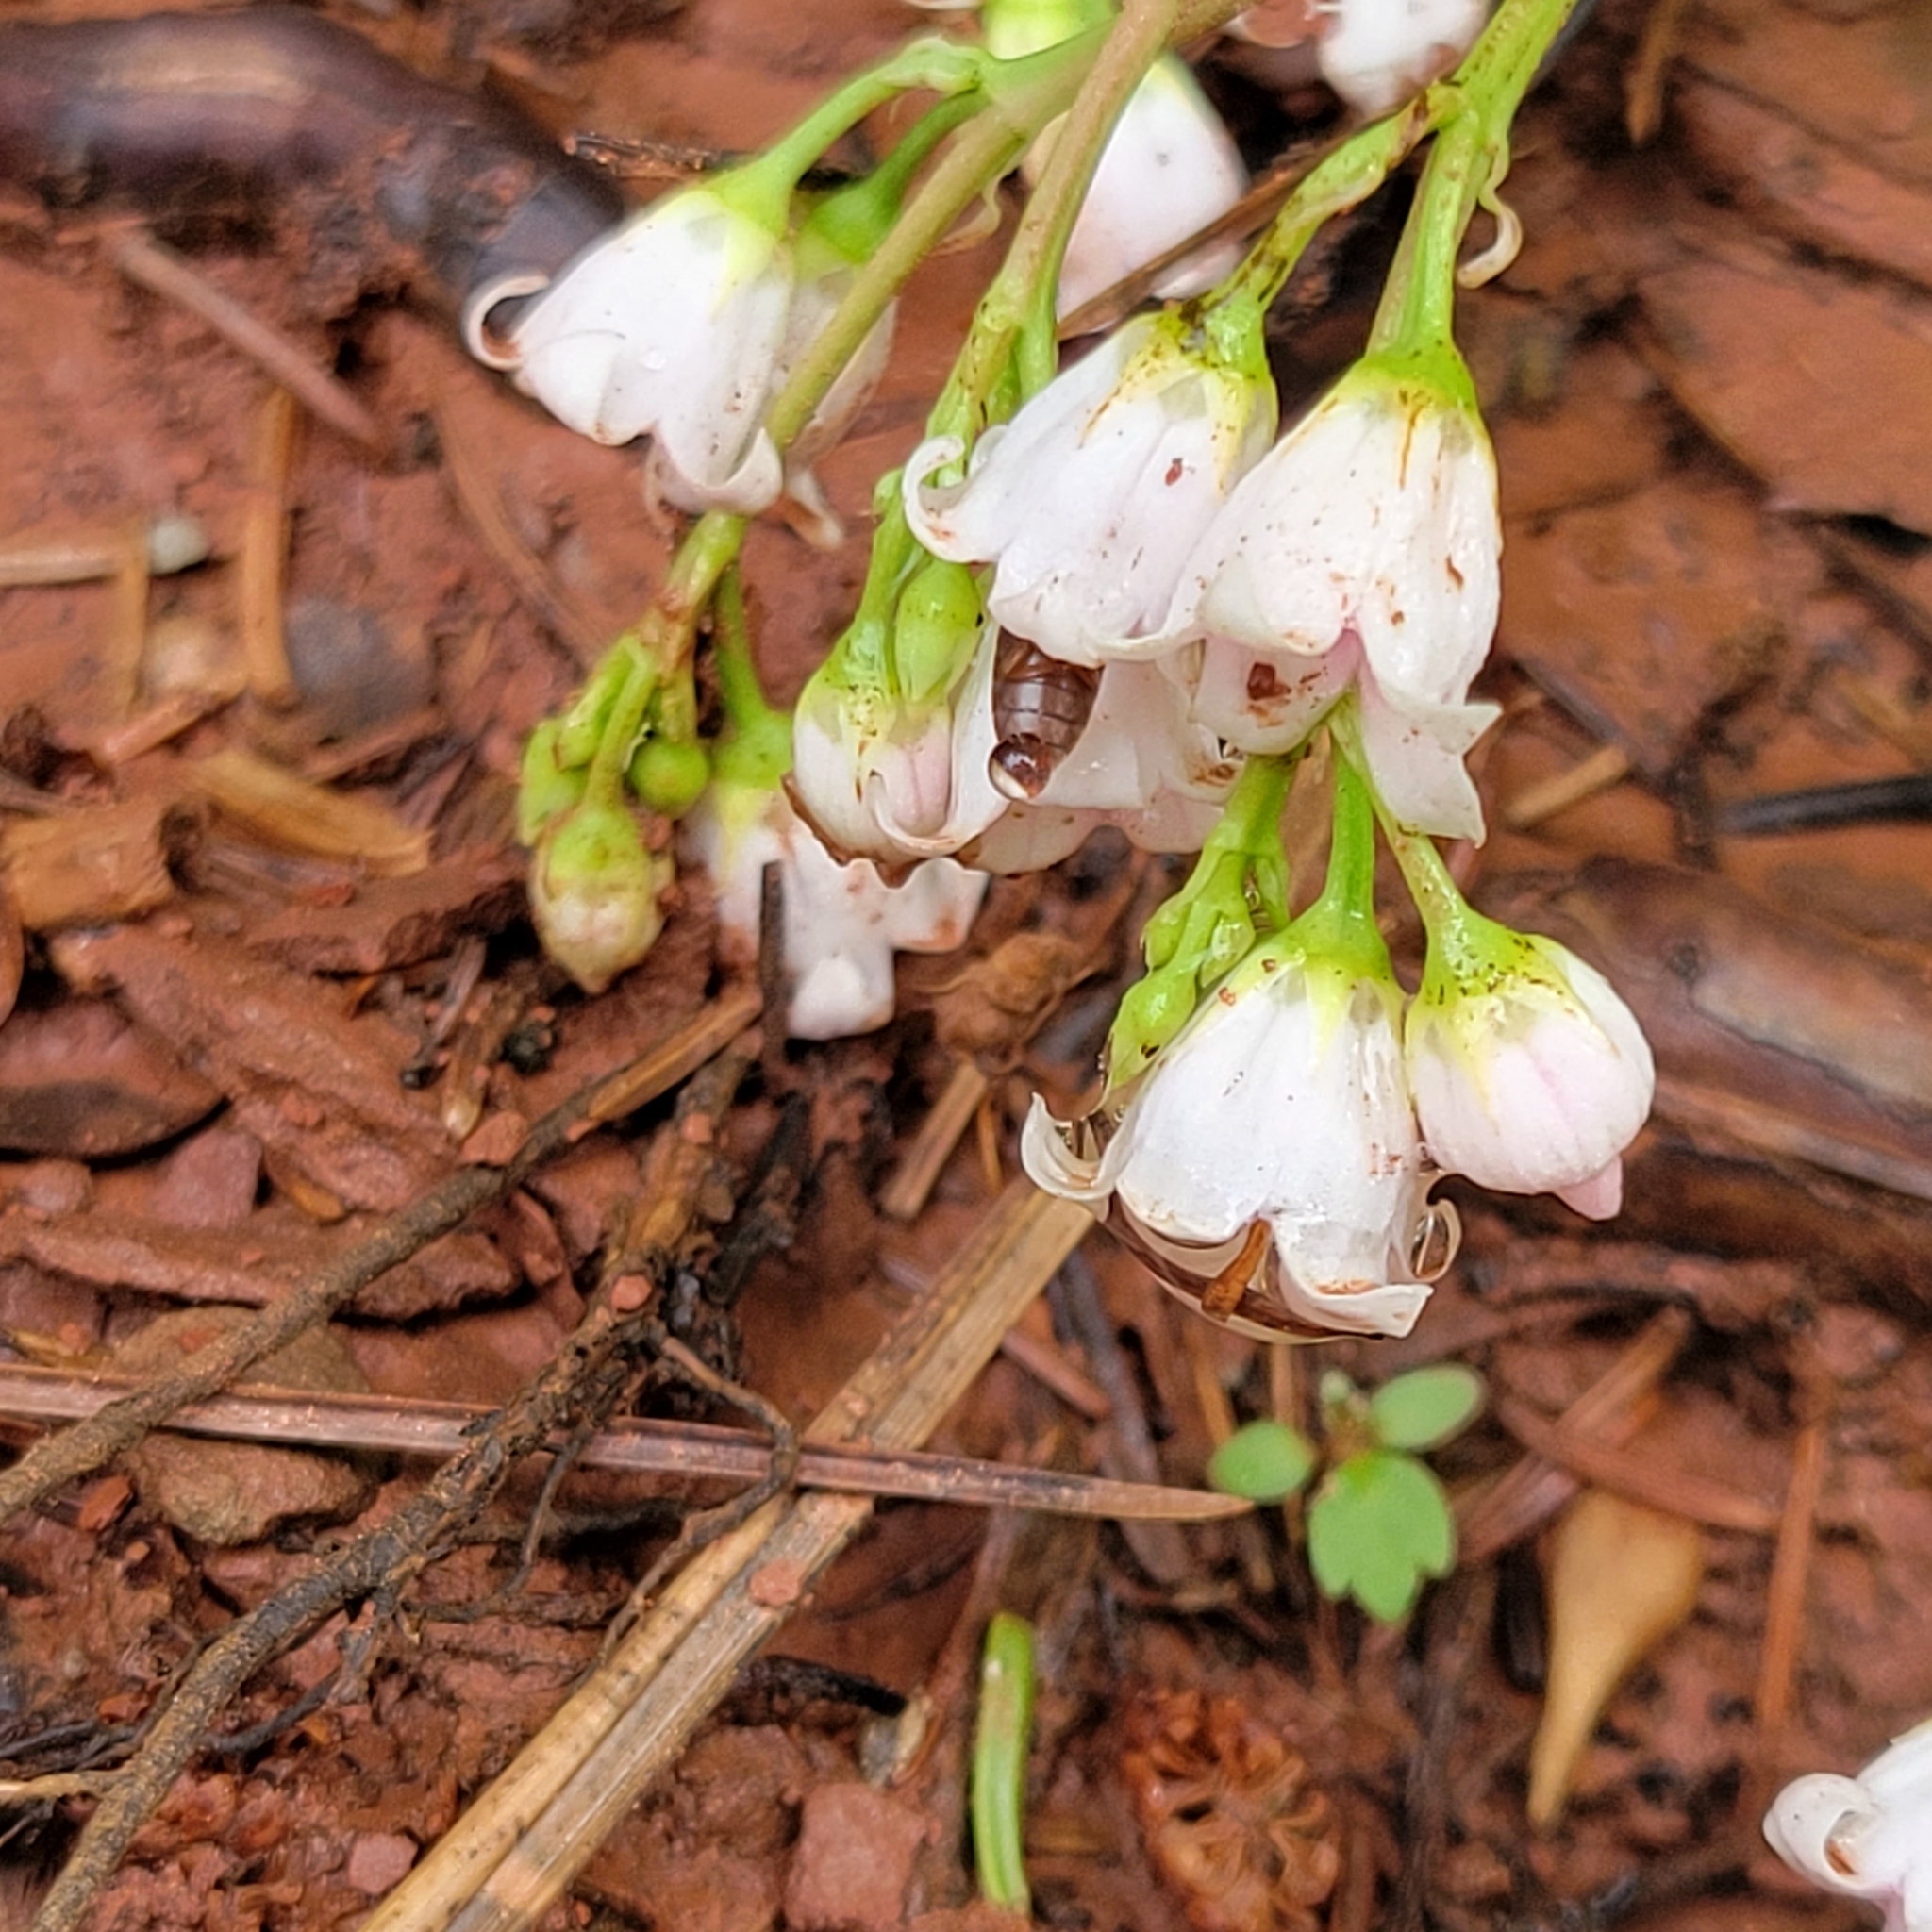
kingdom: Plantae
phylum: Tracheophyta
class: Magnoliopsida
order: Gentianales
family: Apocynaceae
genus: Apocynum
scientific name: Apocynum androsaemifolium
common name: Spreading dogbane
